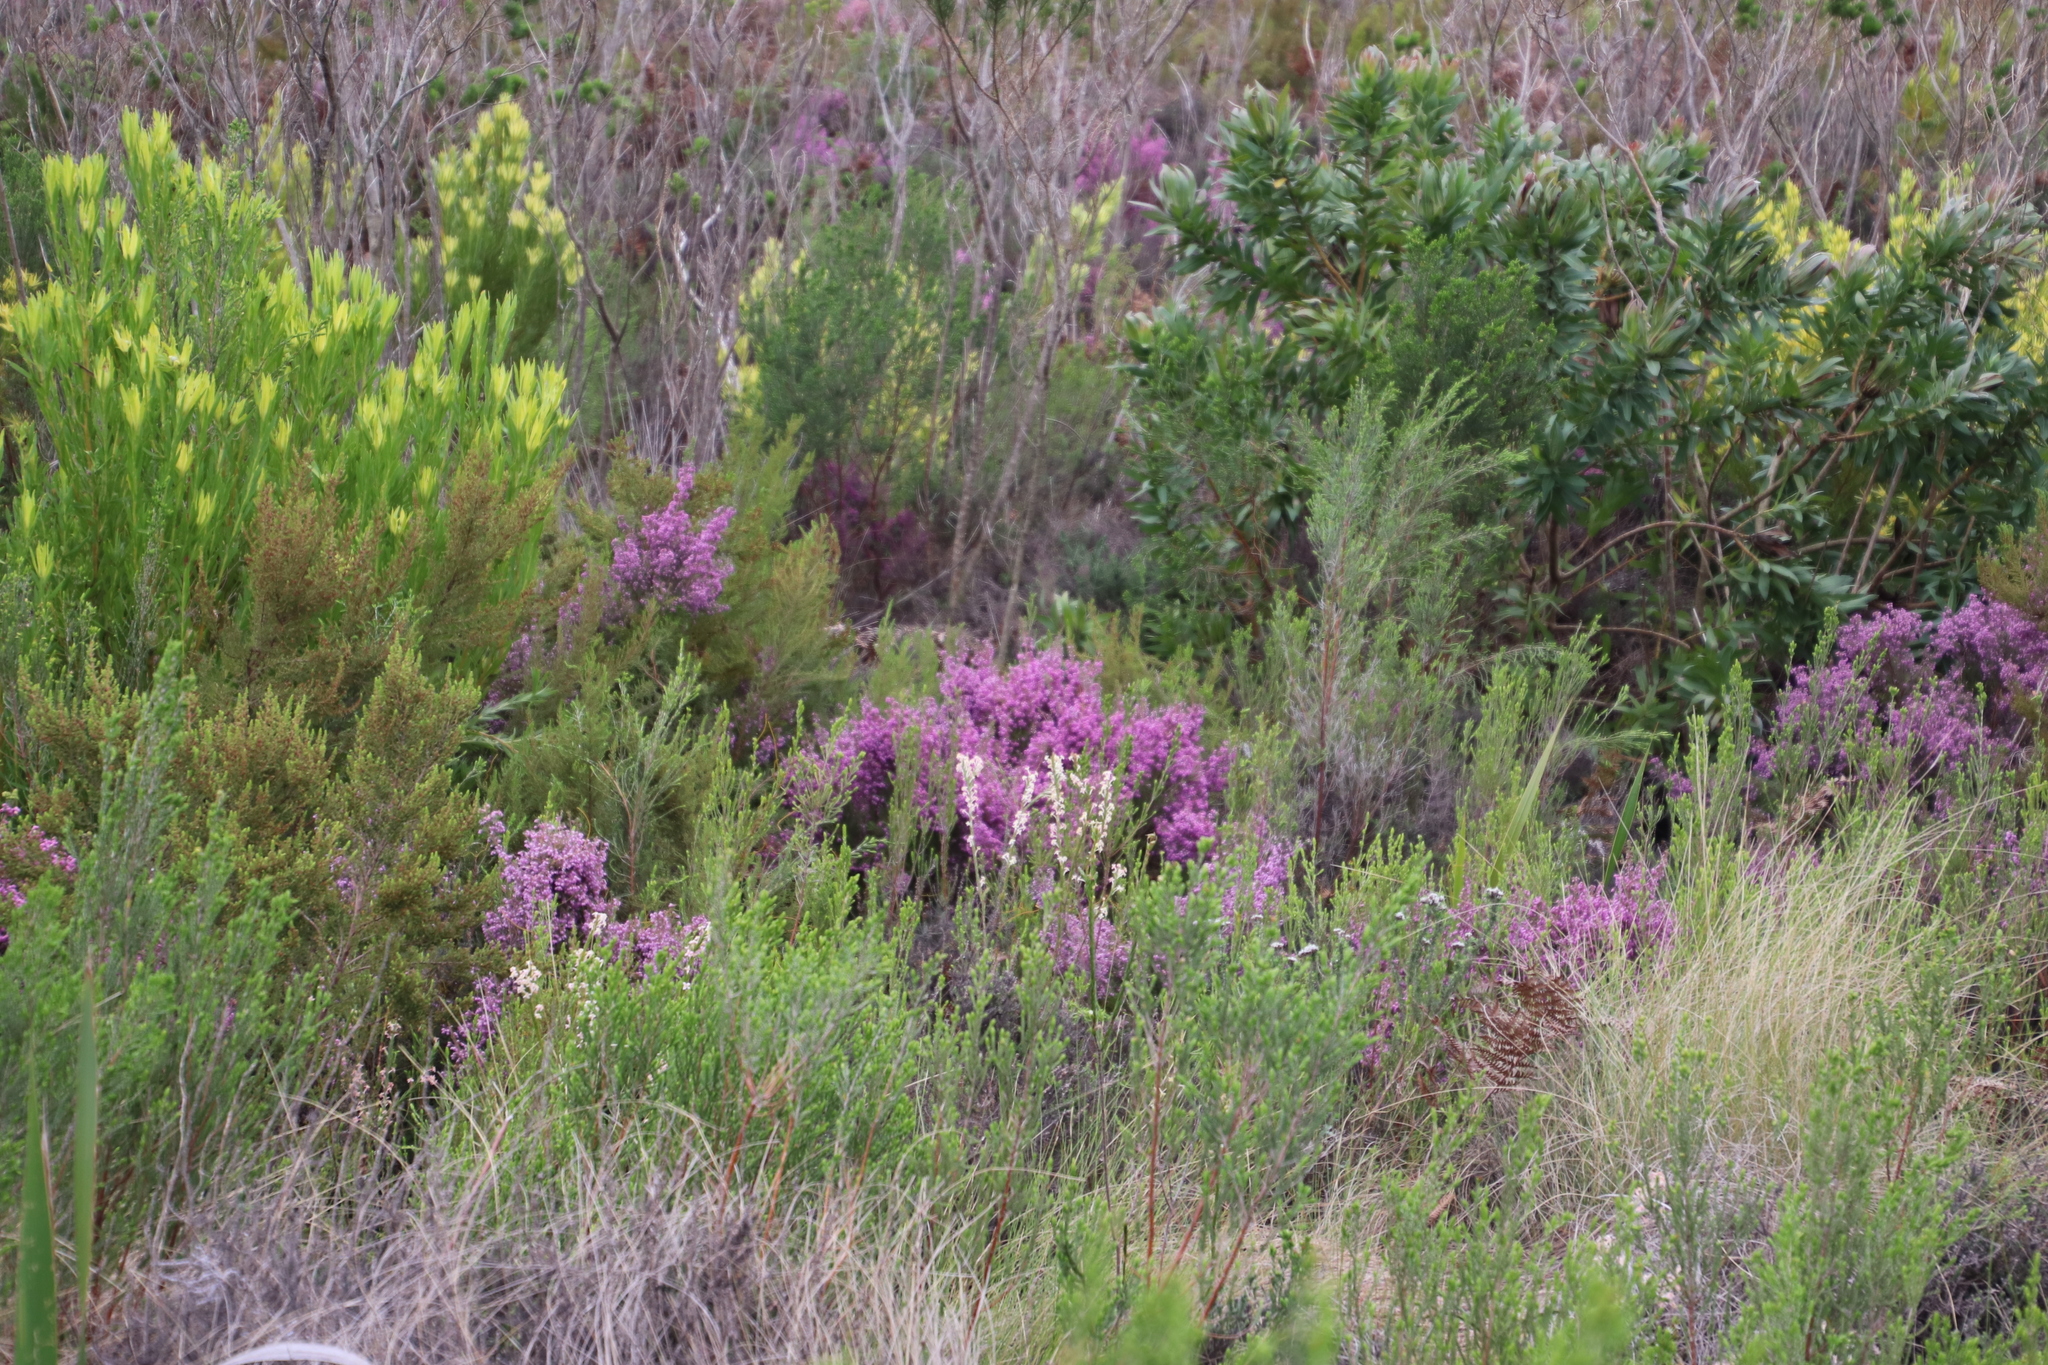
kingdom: Plantae
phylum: Tracheophyta
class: Magnoliopsida
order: Ericales
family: Ericaceae
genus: Erica
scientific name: Erica hirtiflora
